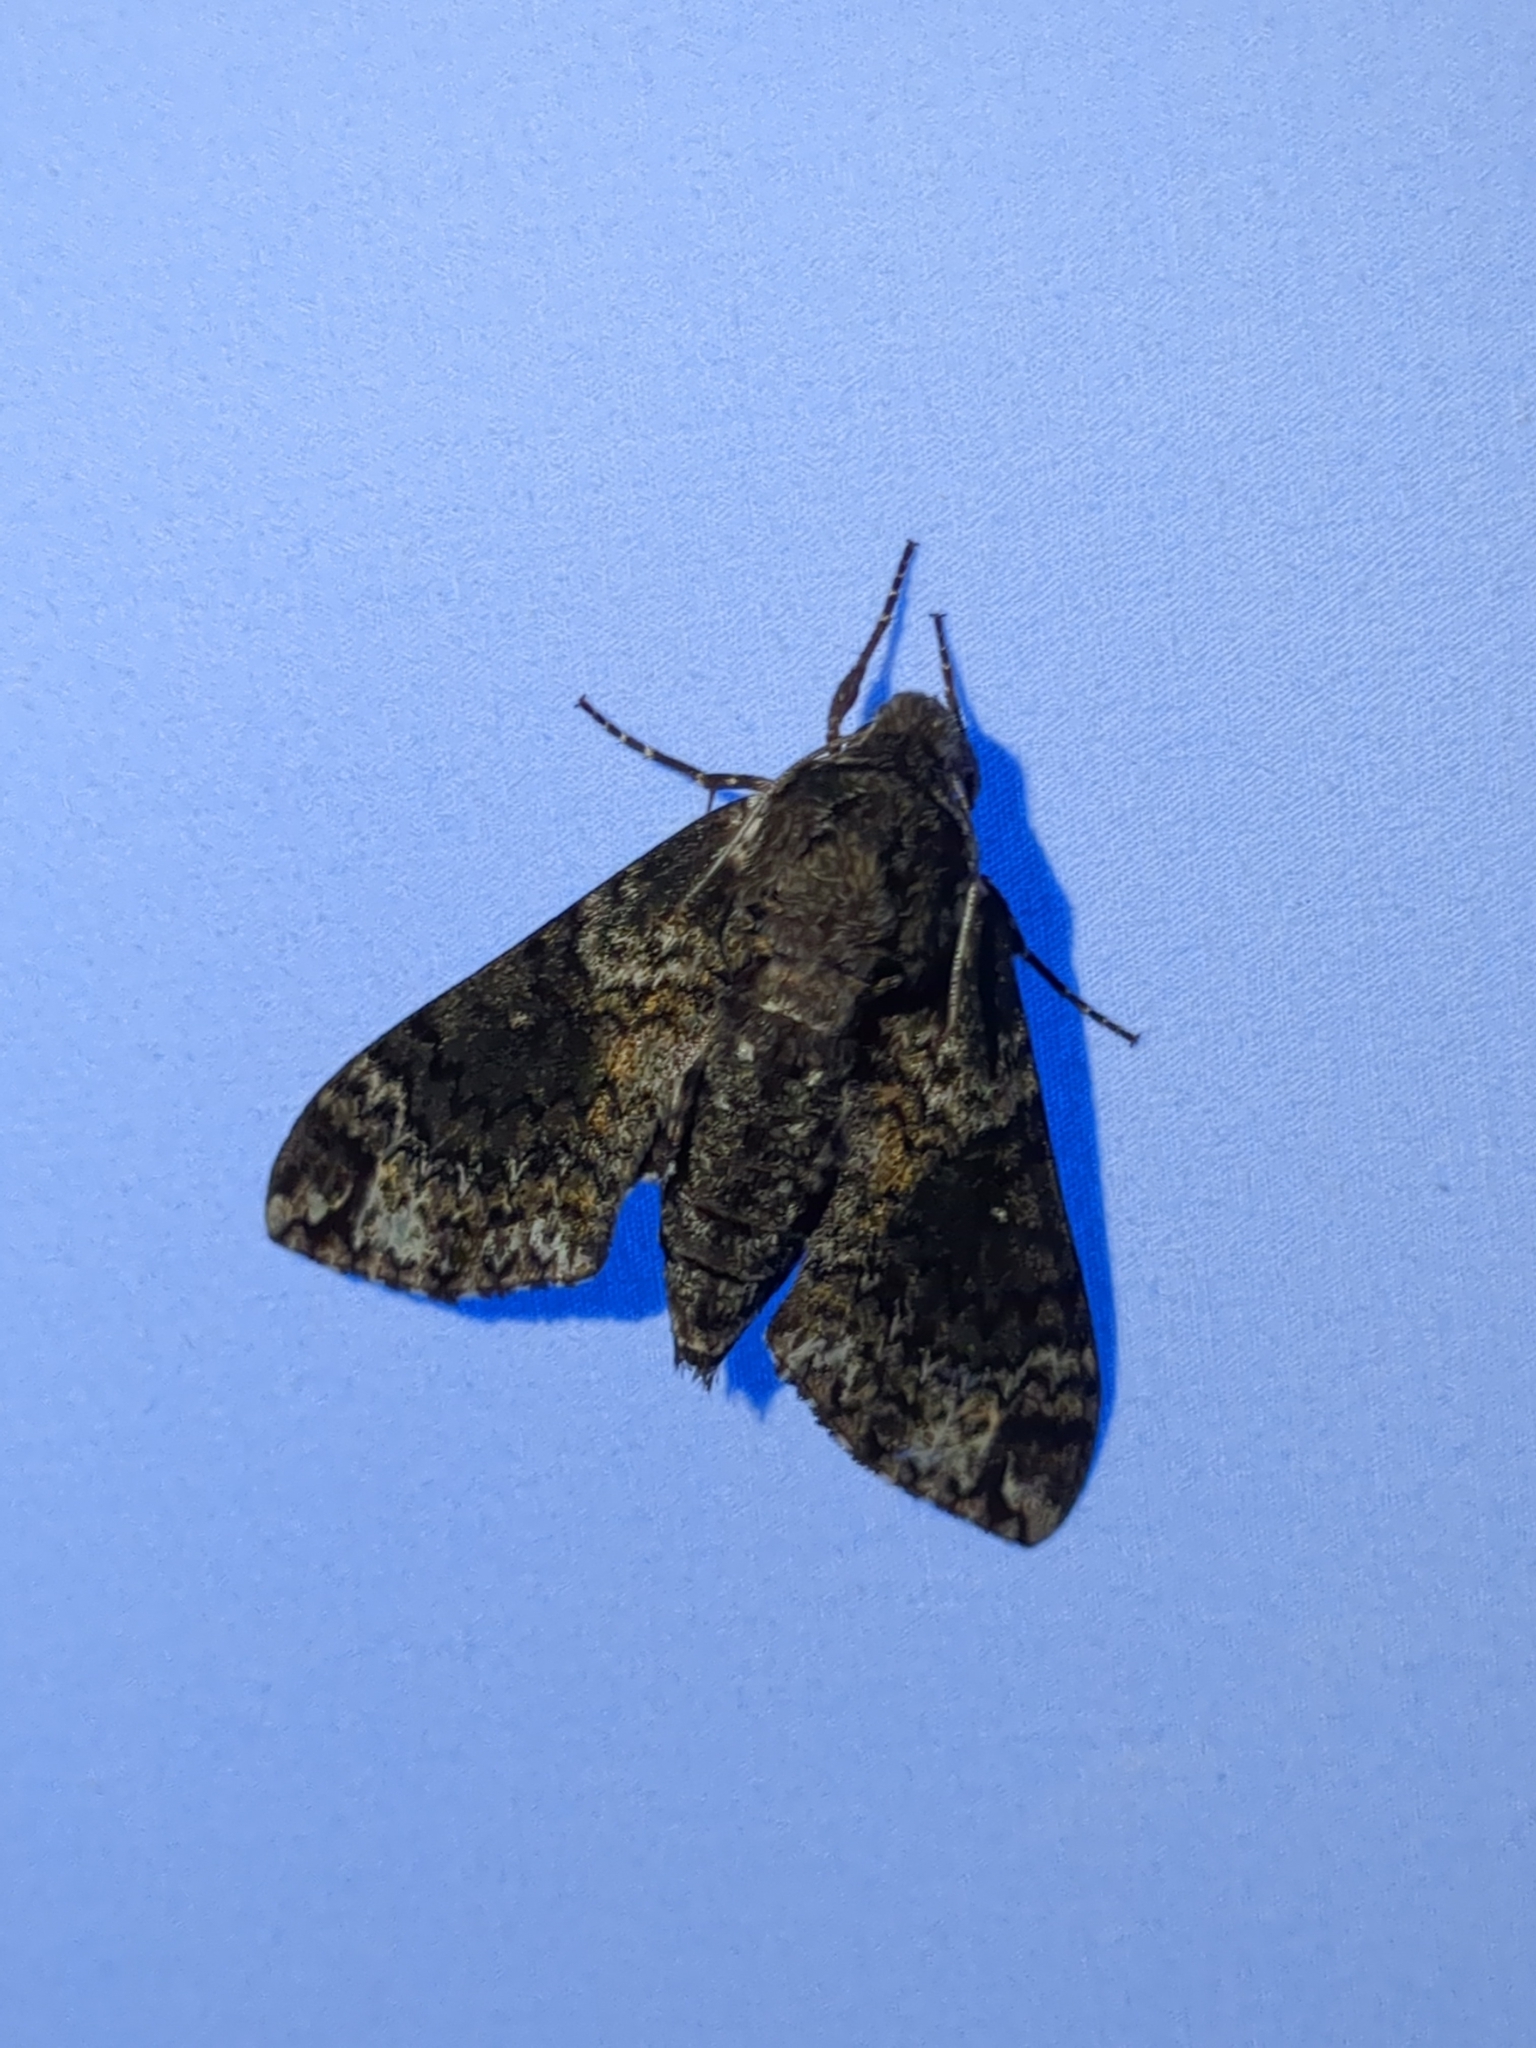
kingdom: Animalia
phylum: Arthropoda
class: Insecta
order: Lepidoptera
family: Sphingidae
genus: Dolba
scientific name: Dolba hyloeus
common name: Pawpaw sphinx
